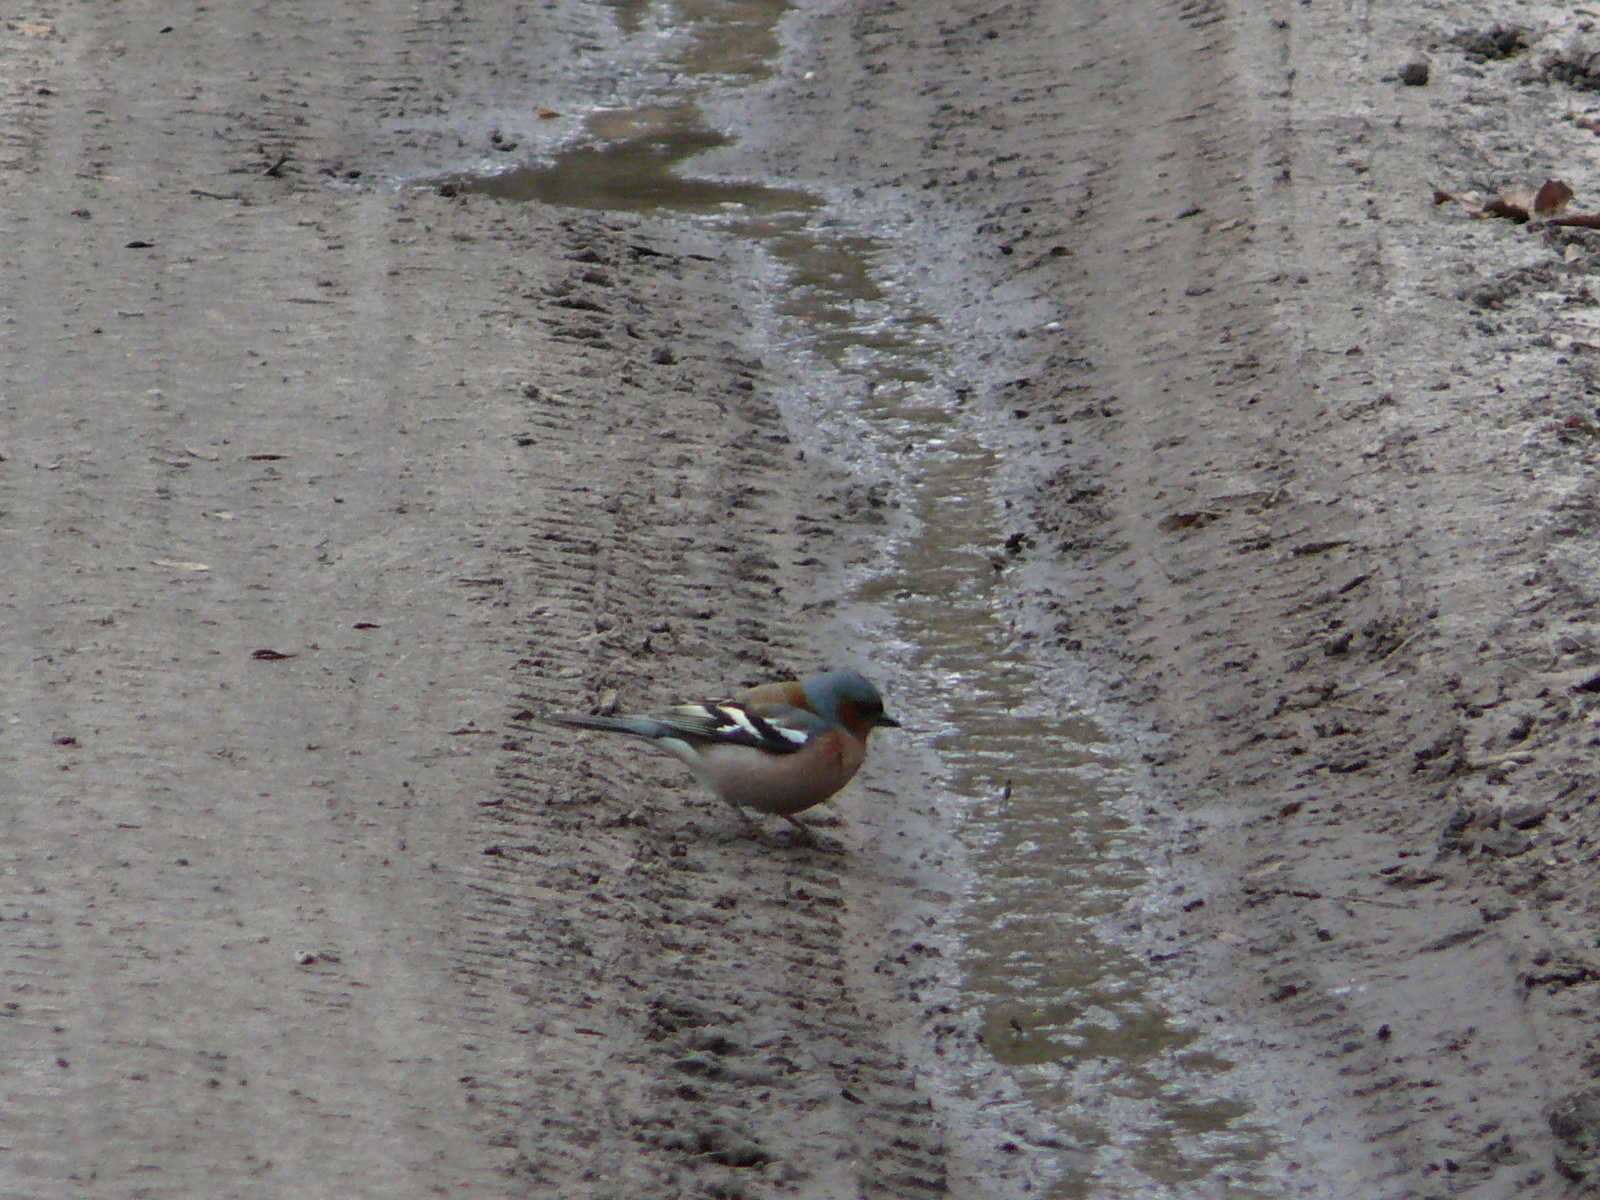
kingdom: Animalia
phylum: Chordata
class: Aves
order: Passeriformes
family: Fringillidae
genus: Fringilla
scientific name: Fringilla coelebs
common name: Common chaffinch
